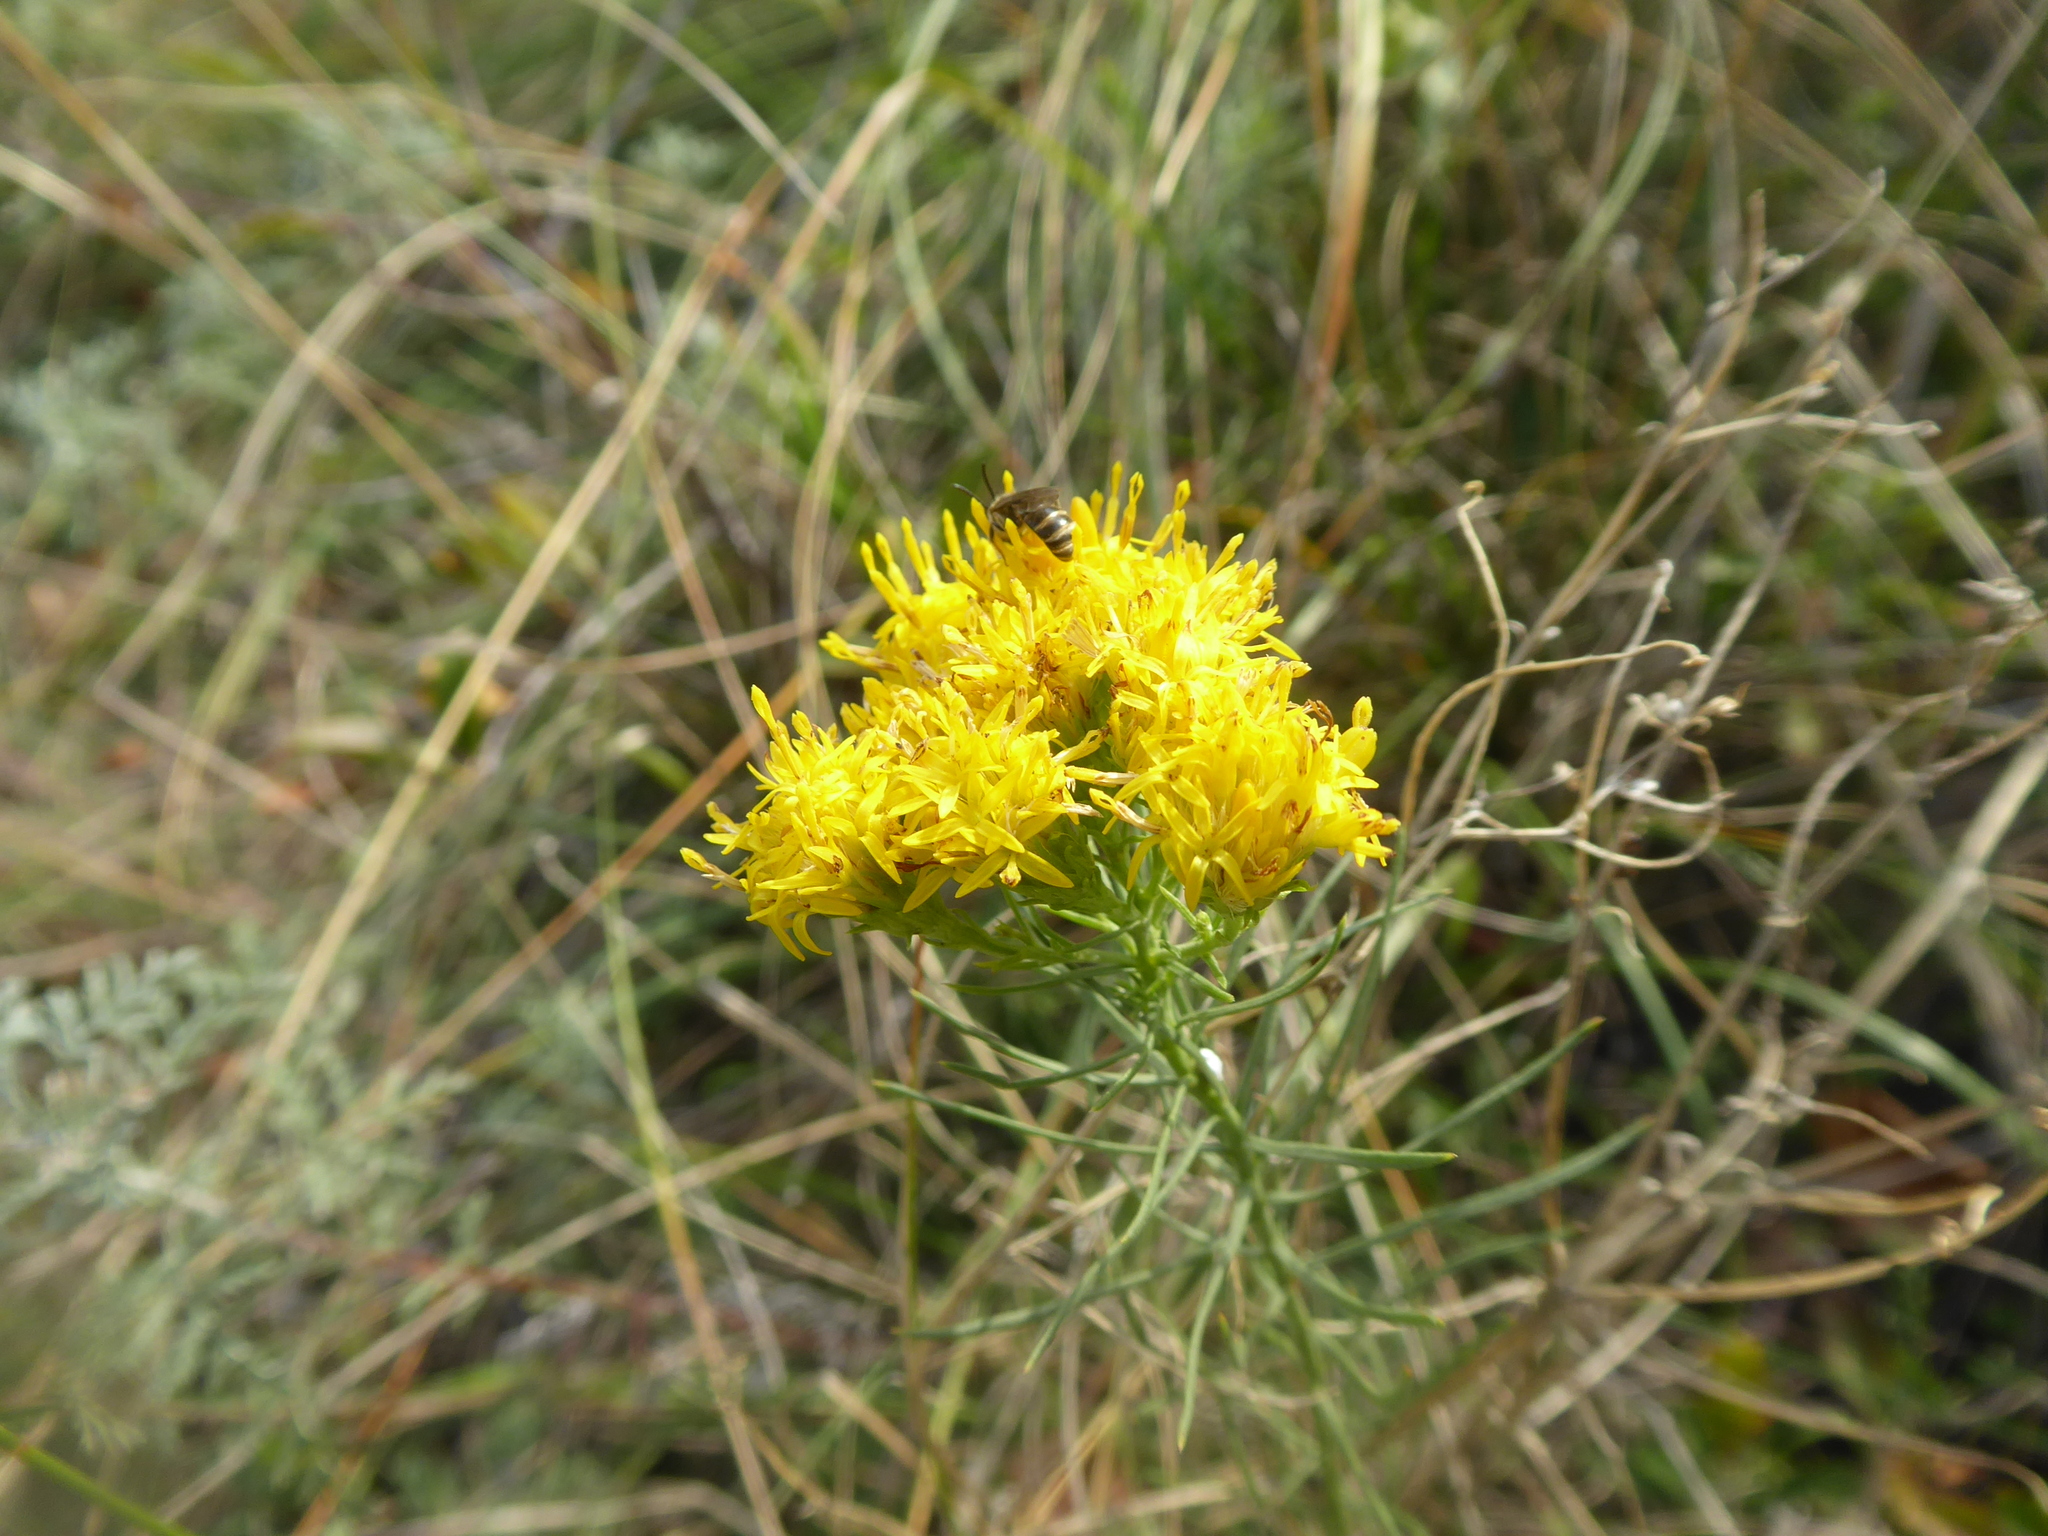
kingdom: Plantae
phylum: Tracheophyta
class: Magnoliopsida
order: Asterales
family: Asteraceae
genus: Galatella
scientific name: Galatella linosyris
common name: Goldilocks aster
